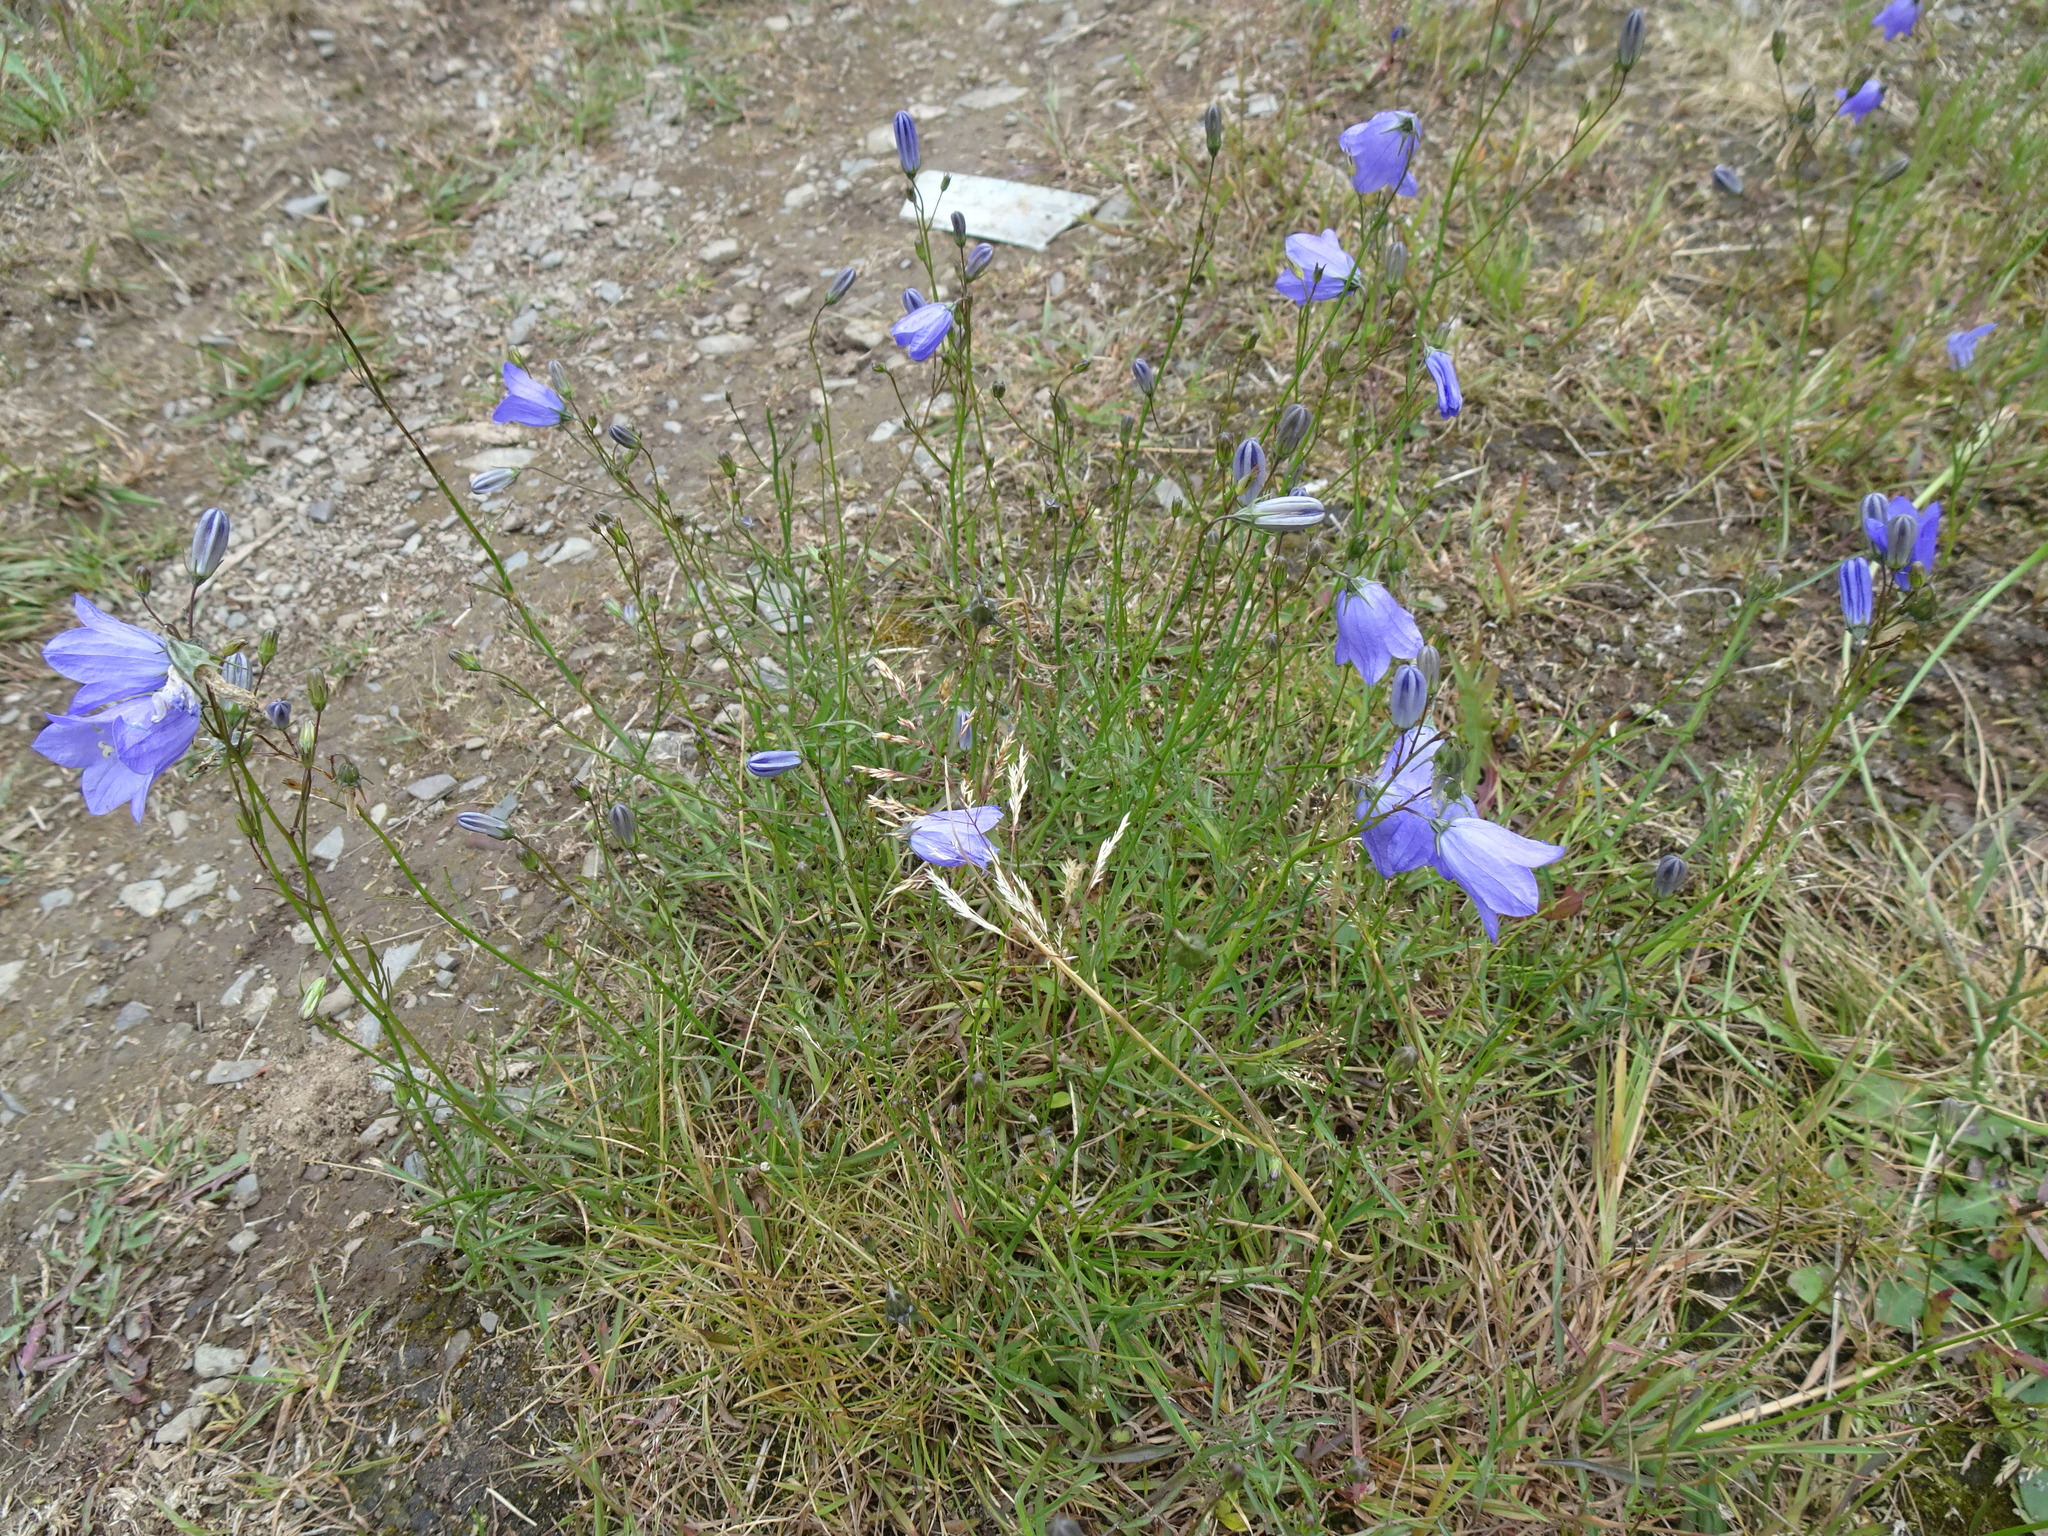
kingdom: Plantae
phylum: Tracheophyta
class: Magnoliopsida
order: Asterales
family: Campanulaceae
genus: Campanula
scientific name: Campanula rotundifolia
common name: Harebell
